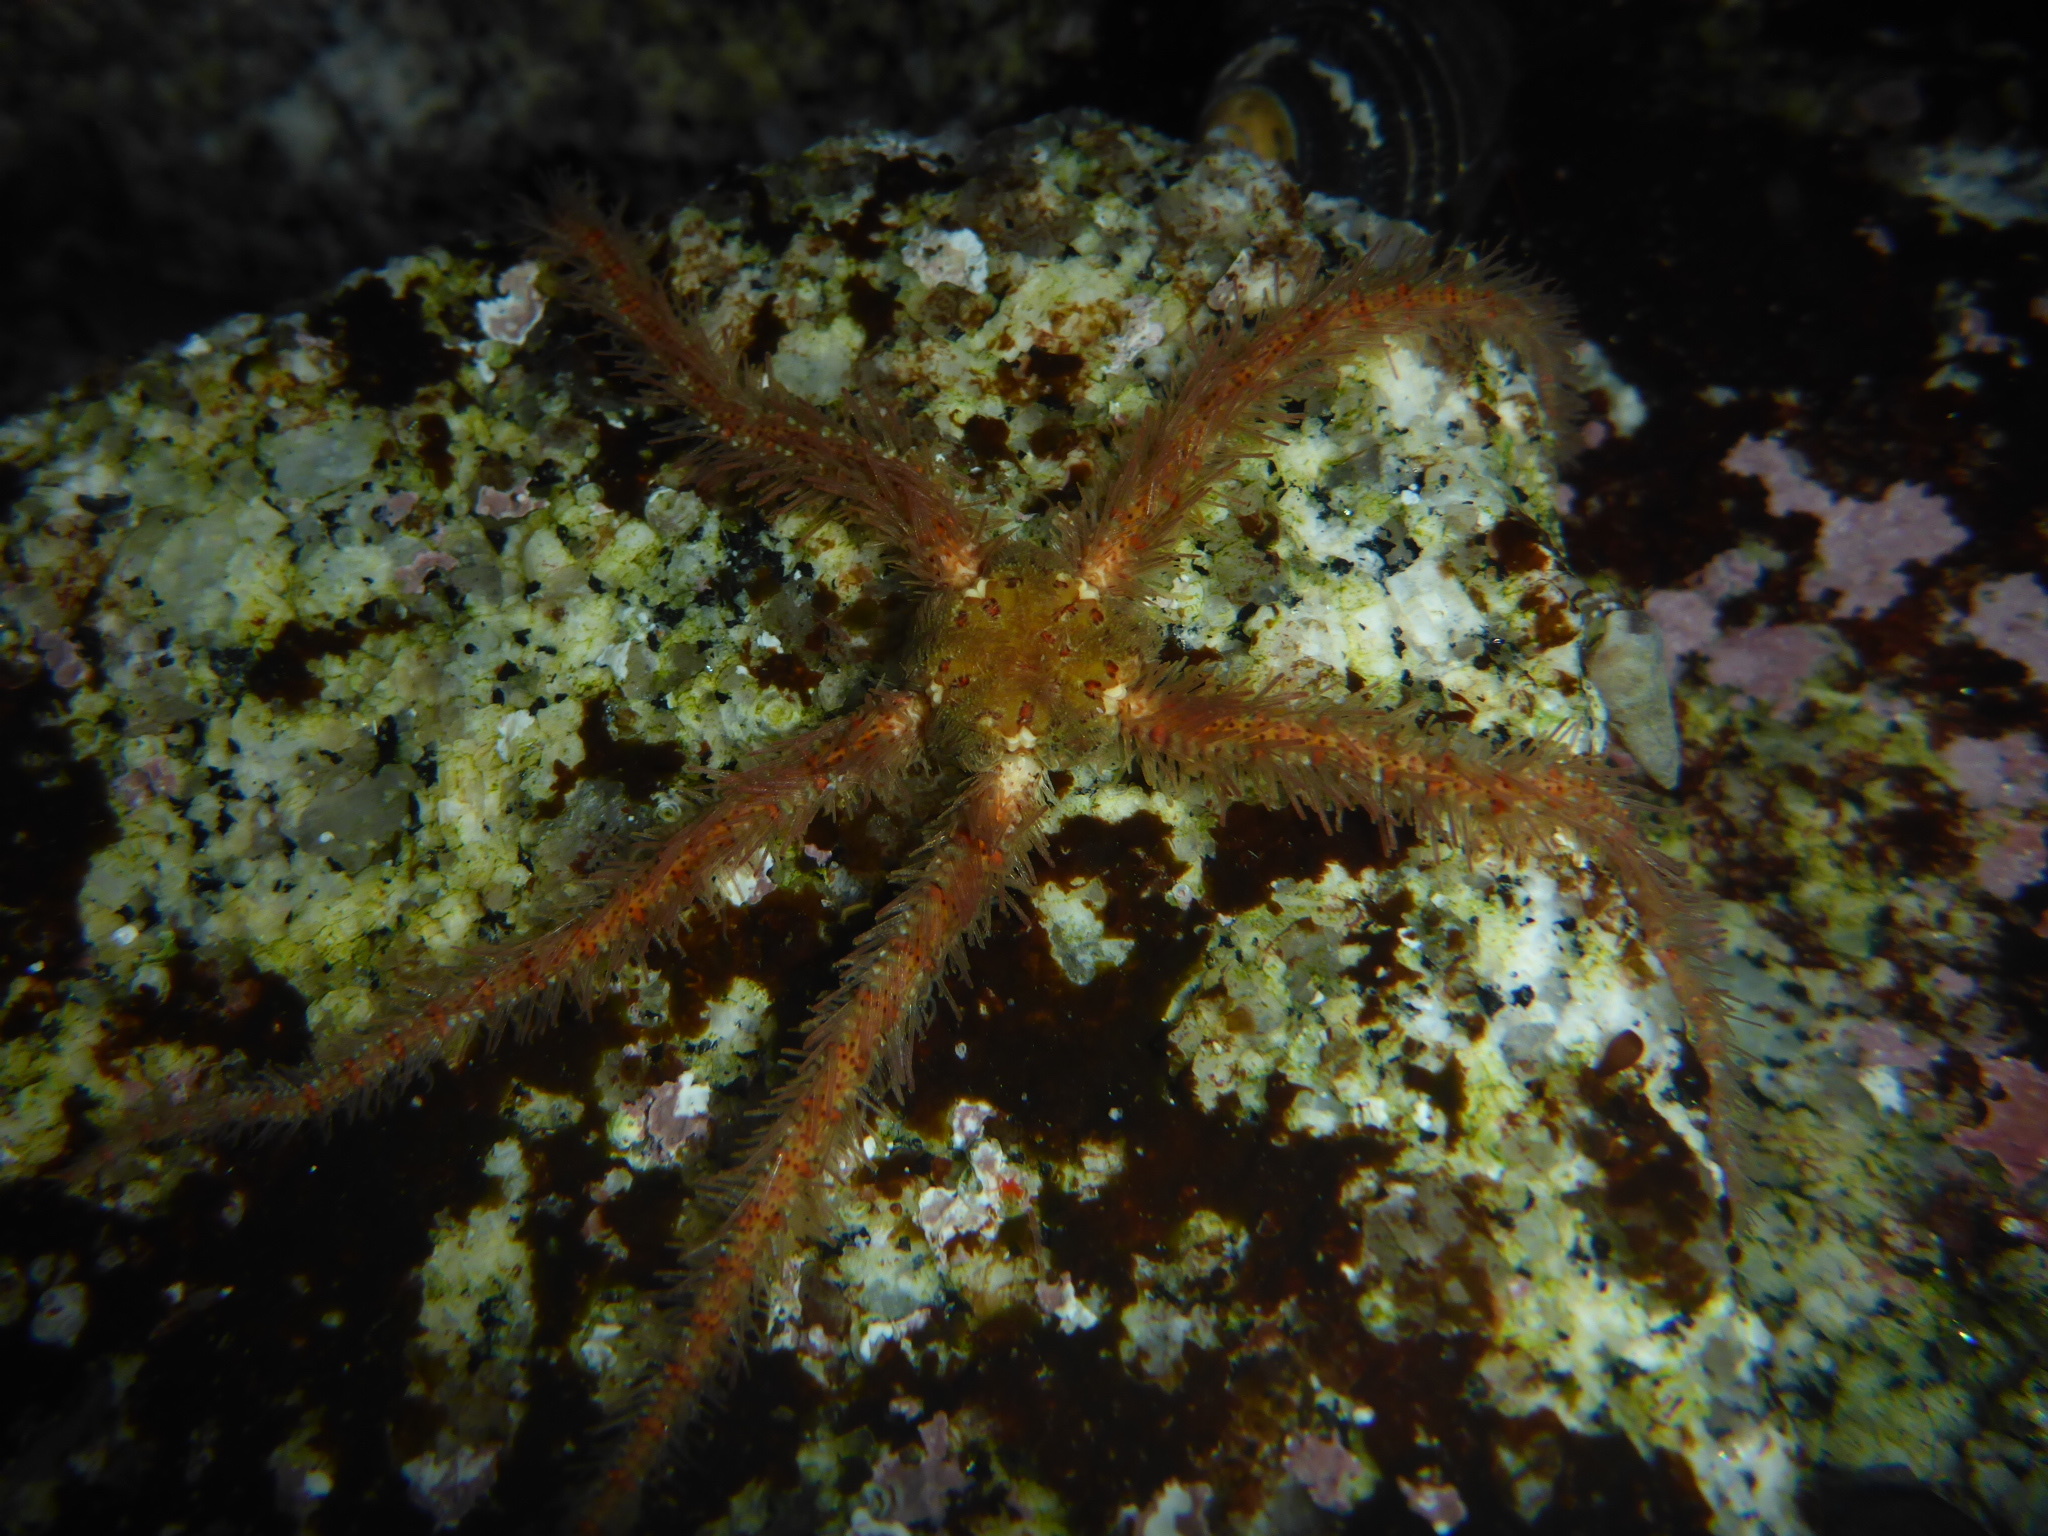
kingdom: Animalia
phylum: Echinodermata
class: Ophiuroidea
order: Amphilepidida
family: Ophiotrichidae
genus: Ophiothrix
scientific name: Ophiothrix spiculata
